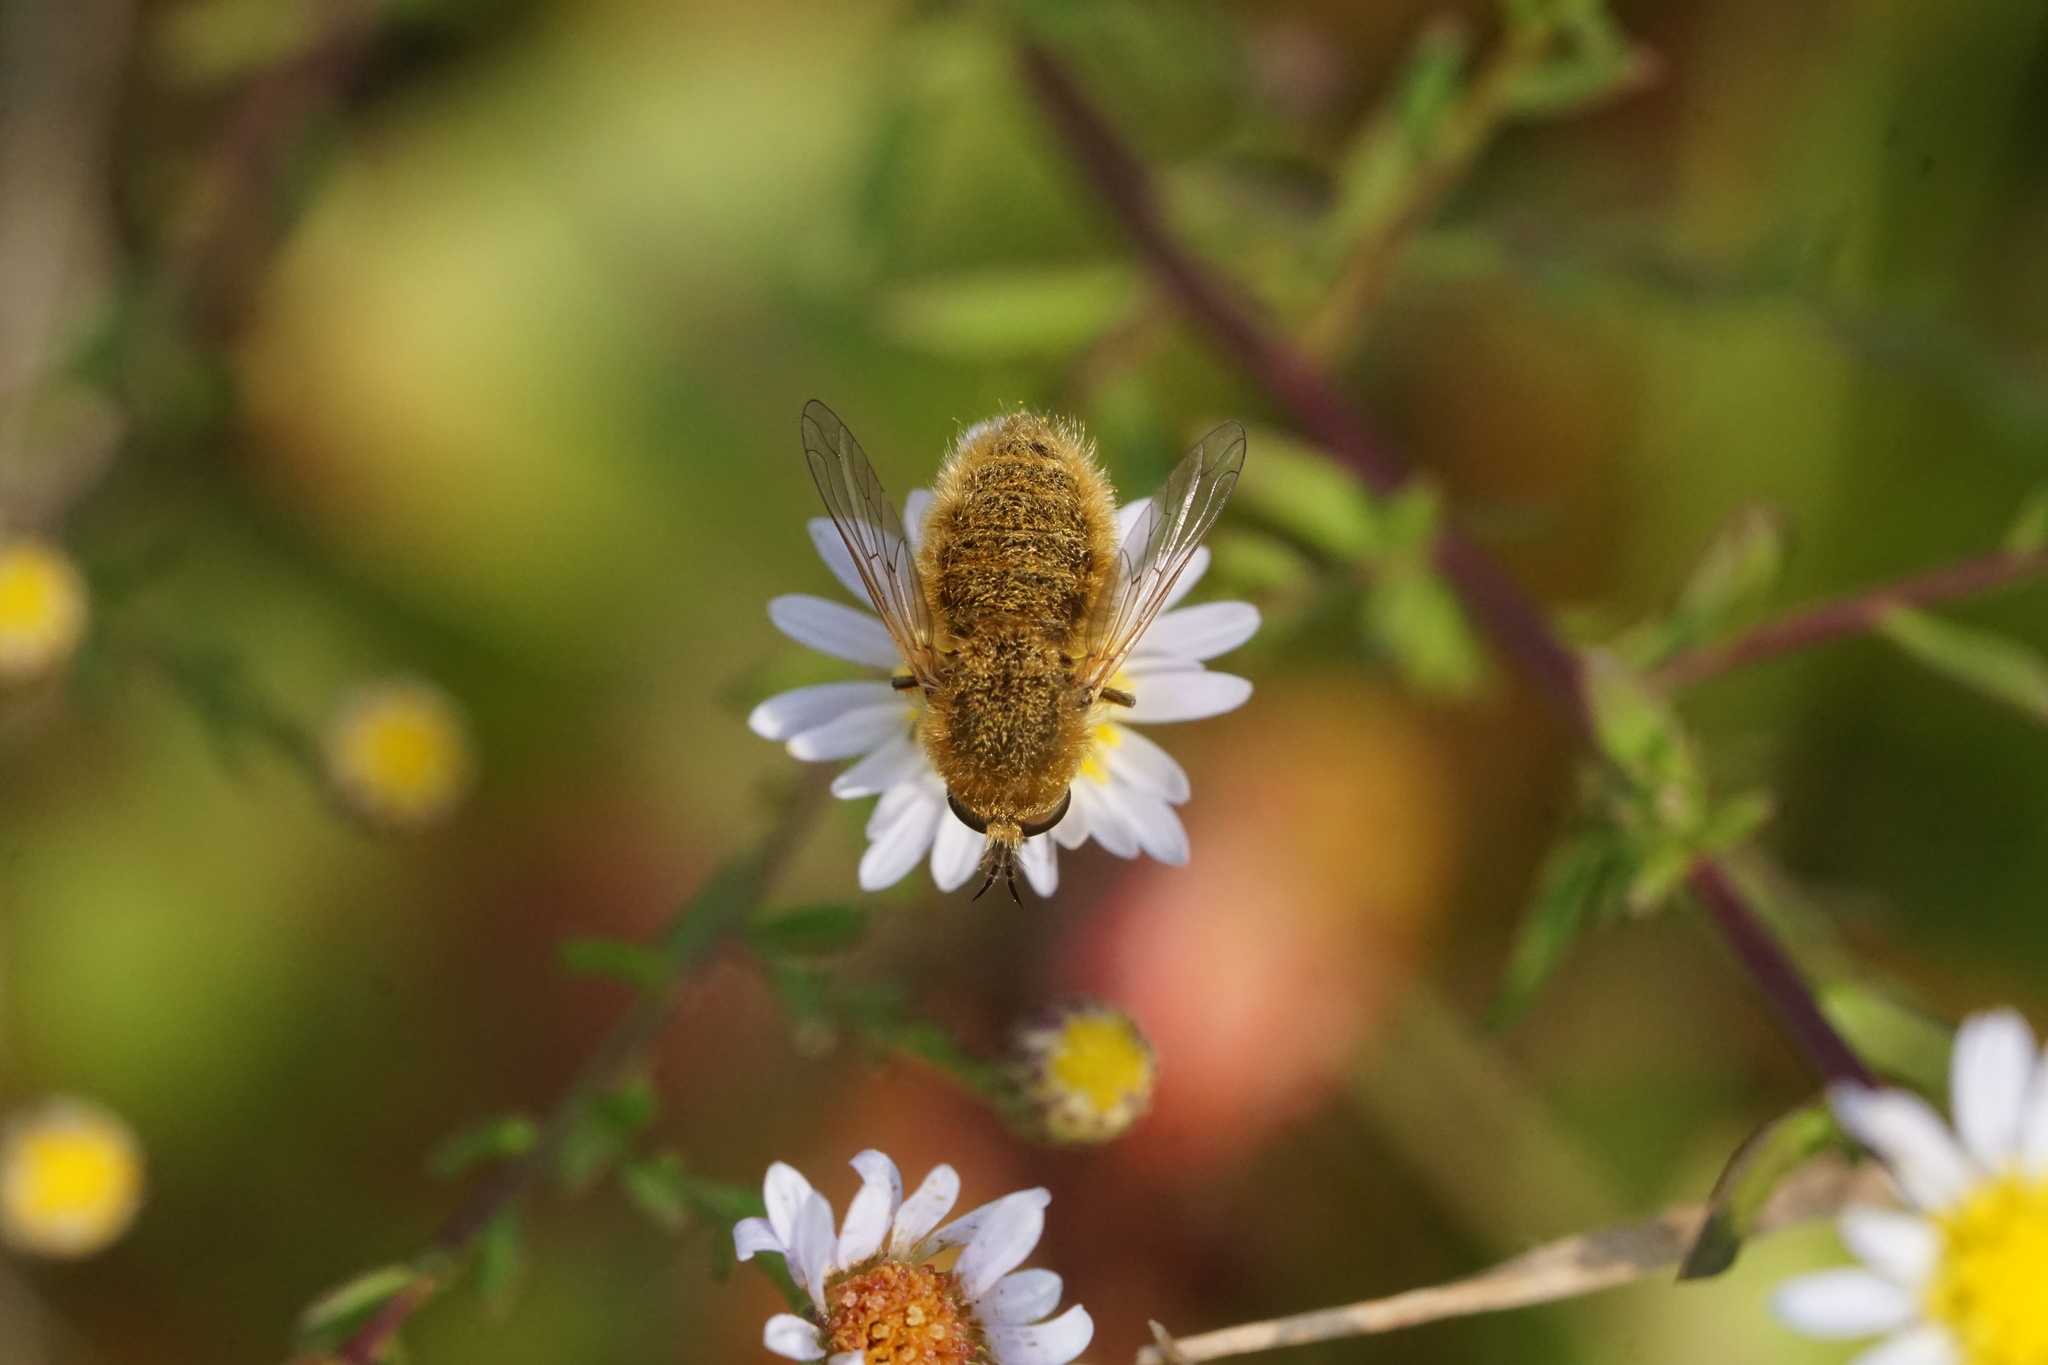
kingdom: Animalia
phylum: Arthropoda
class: Insecta
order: Diptera
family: Bombyliidae
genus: Sparnopolius
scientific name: Sparnopolius confusus
